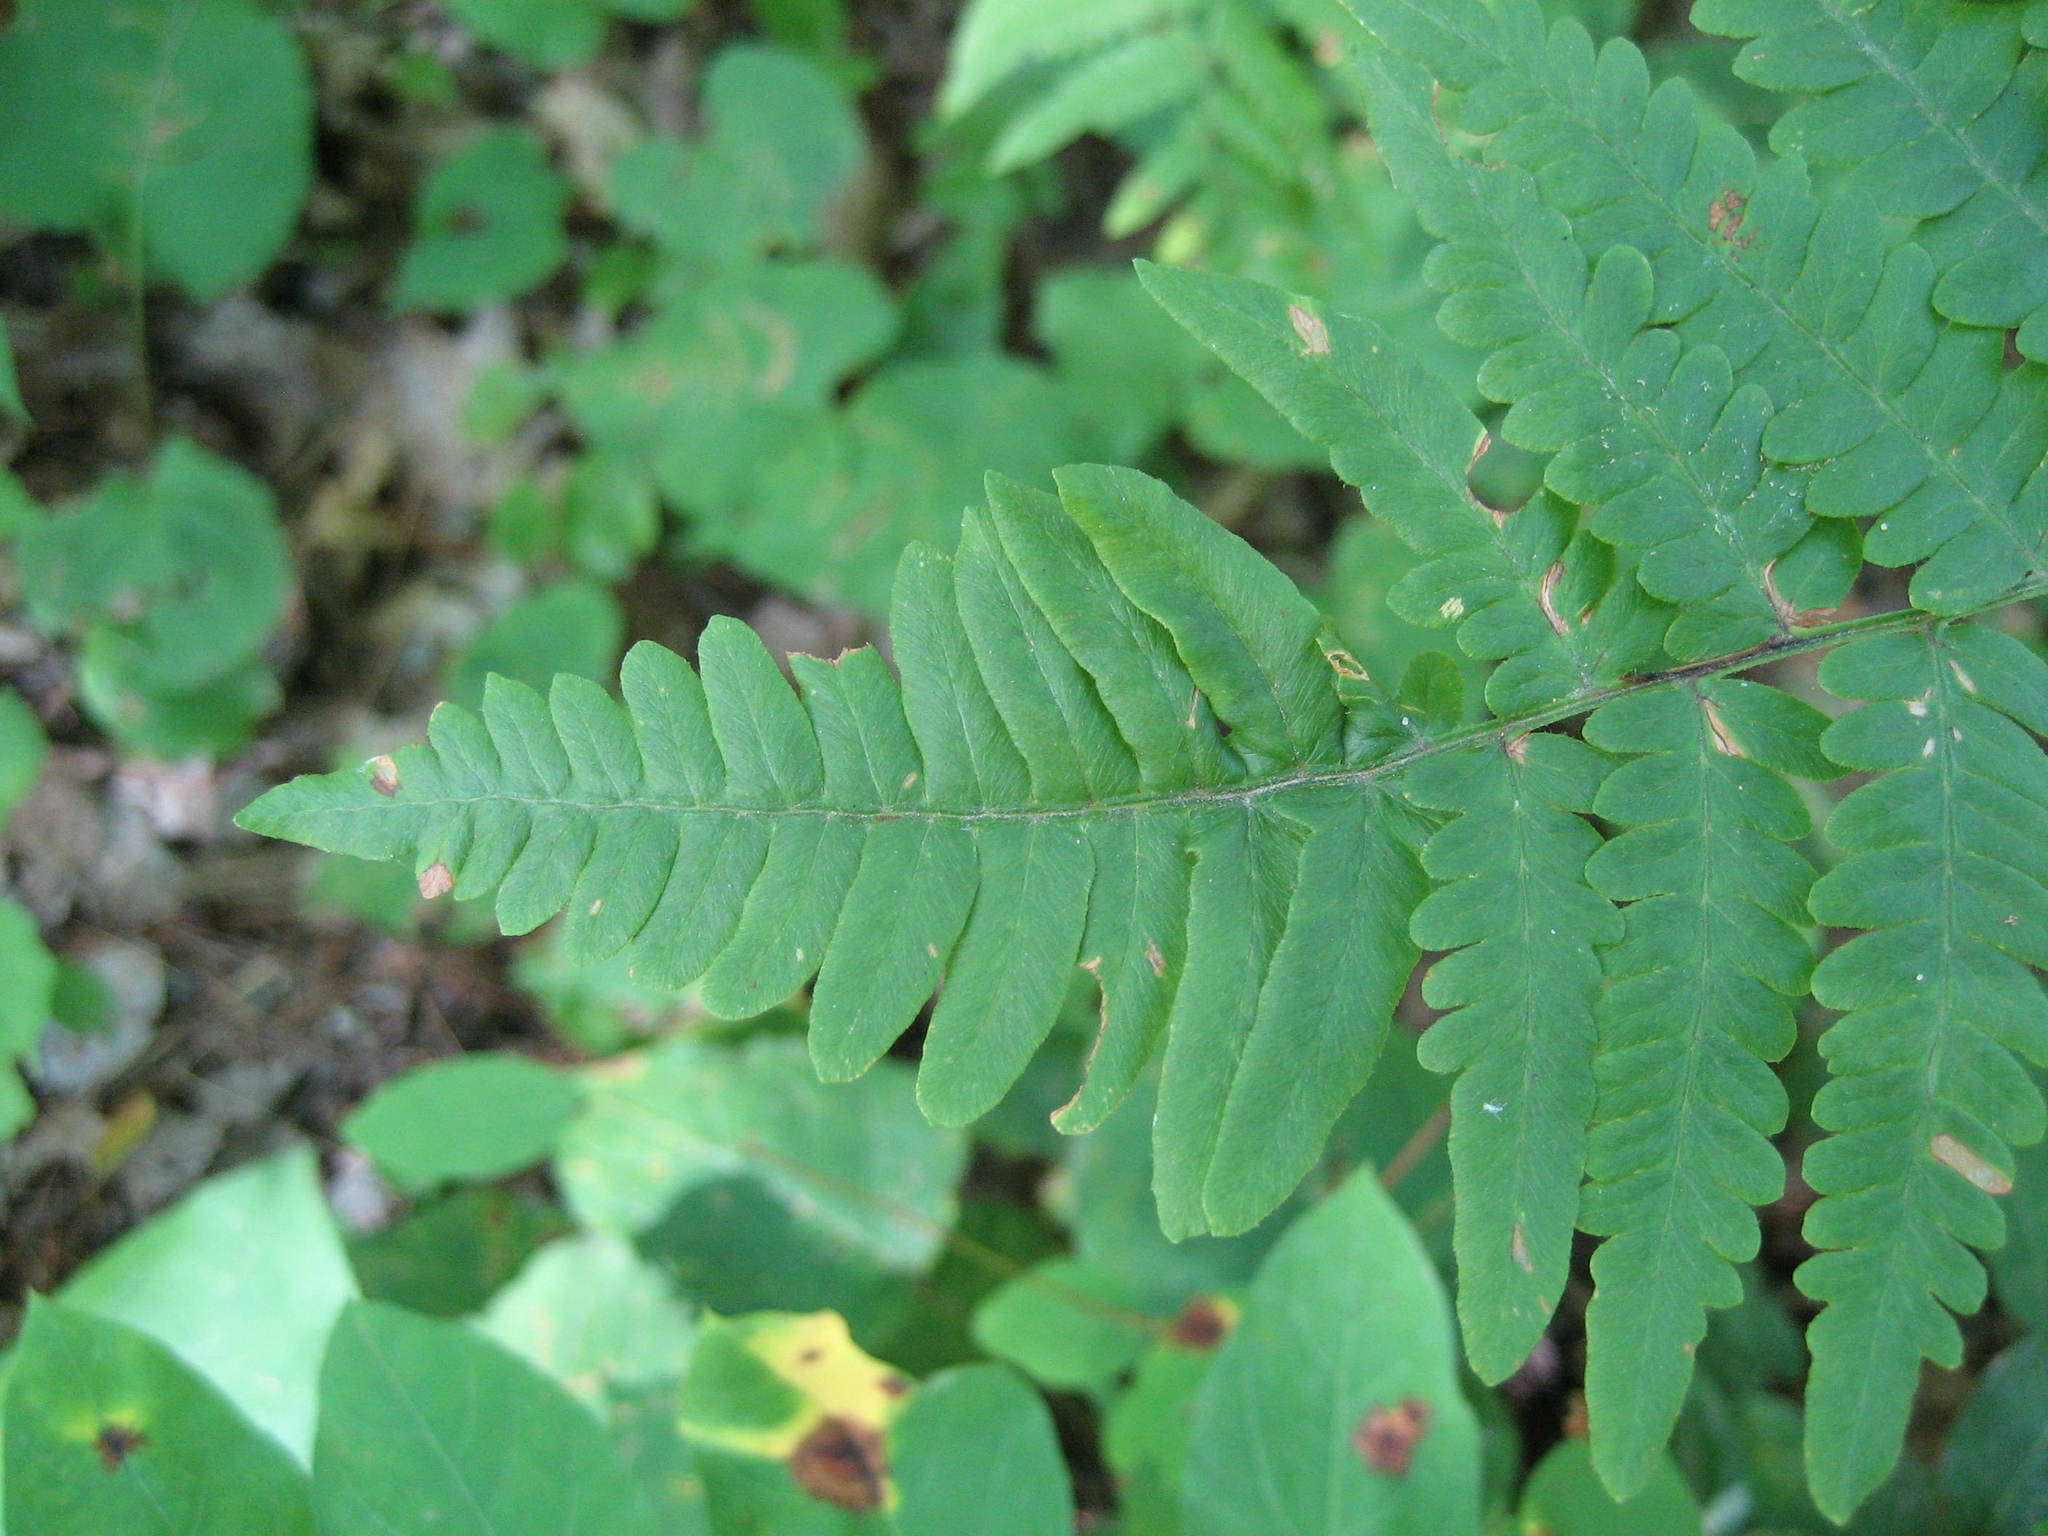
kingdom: Plantae
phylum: Tracheophyta
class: Polypodiopsida
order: Polypodiales
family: Dennstaedtiaceae
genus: Pteridium
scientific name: Pteridium aquilinum
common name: Bracken
